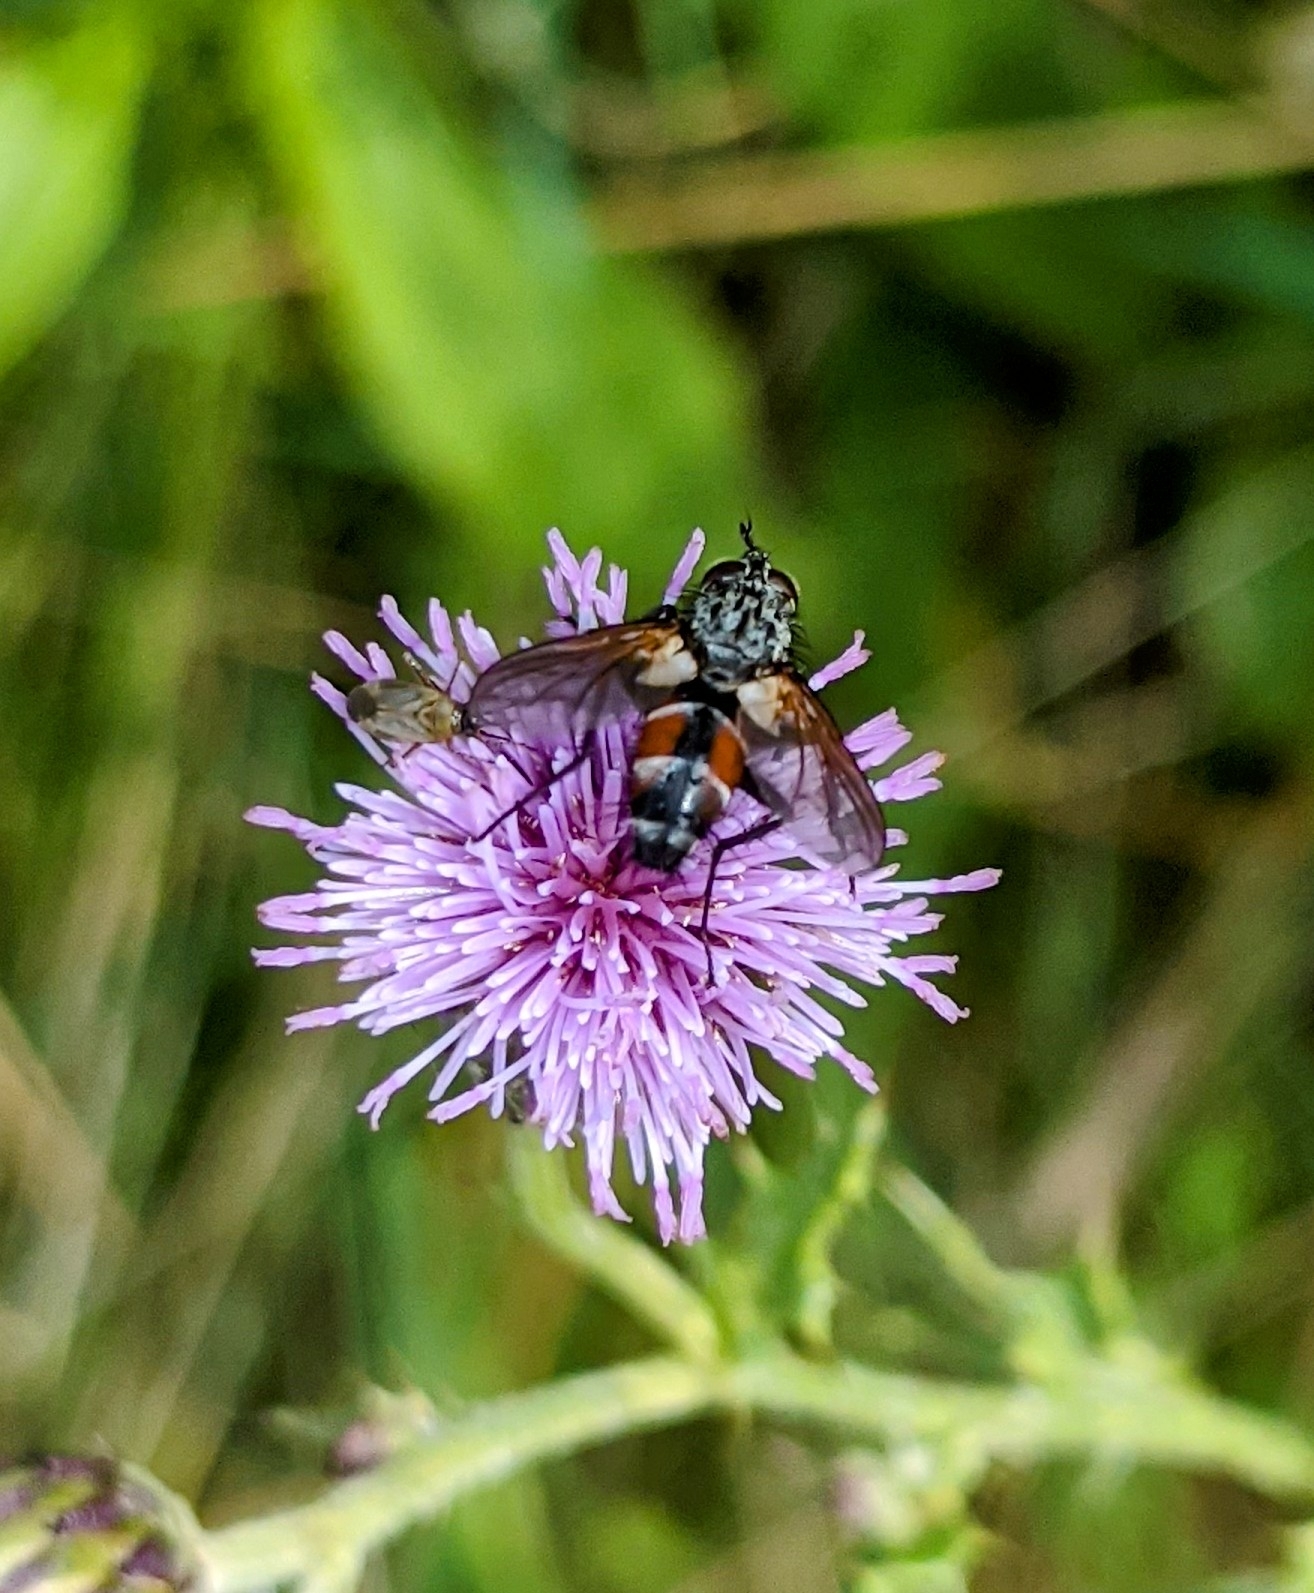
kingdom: Animalia
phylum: Arthropoda
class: Insecta
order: Diptera
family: Tachinidae
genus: Eriothrix
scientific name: Eriothrix rufomaculatus
